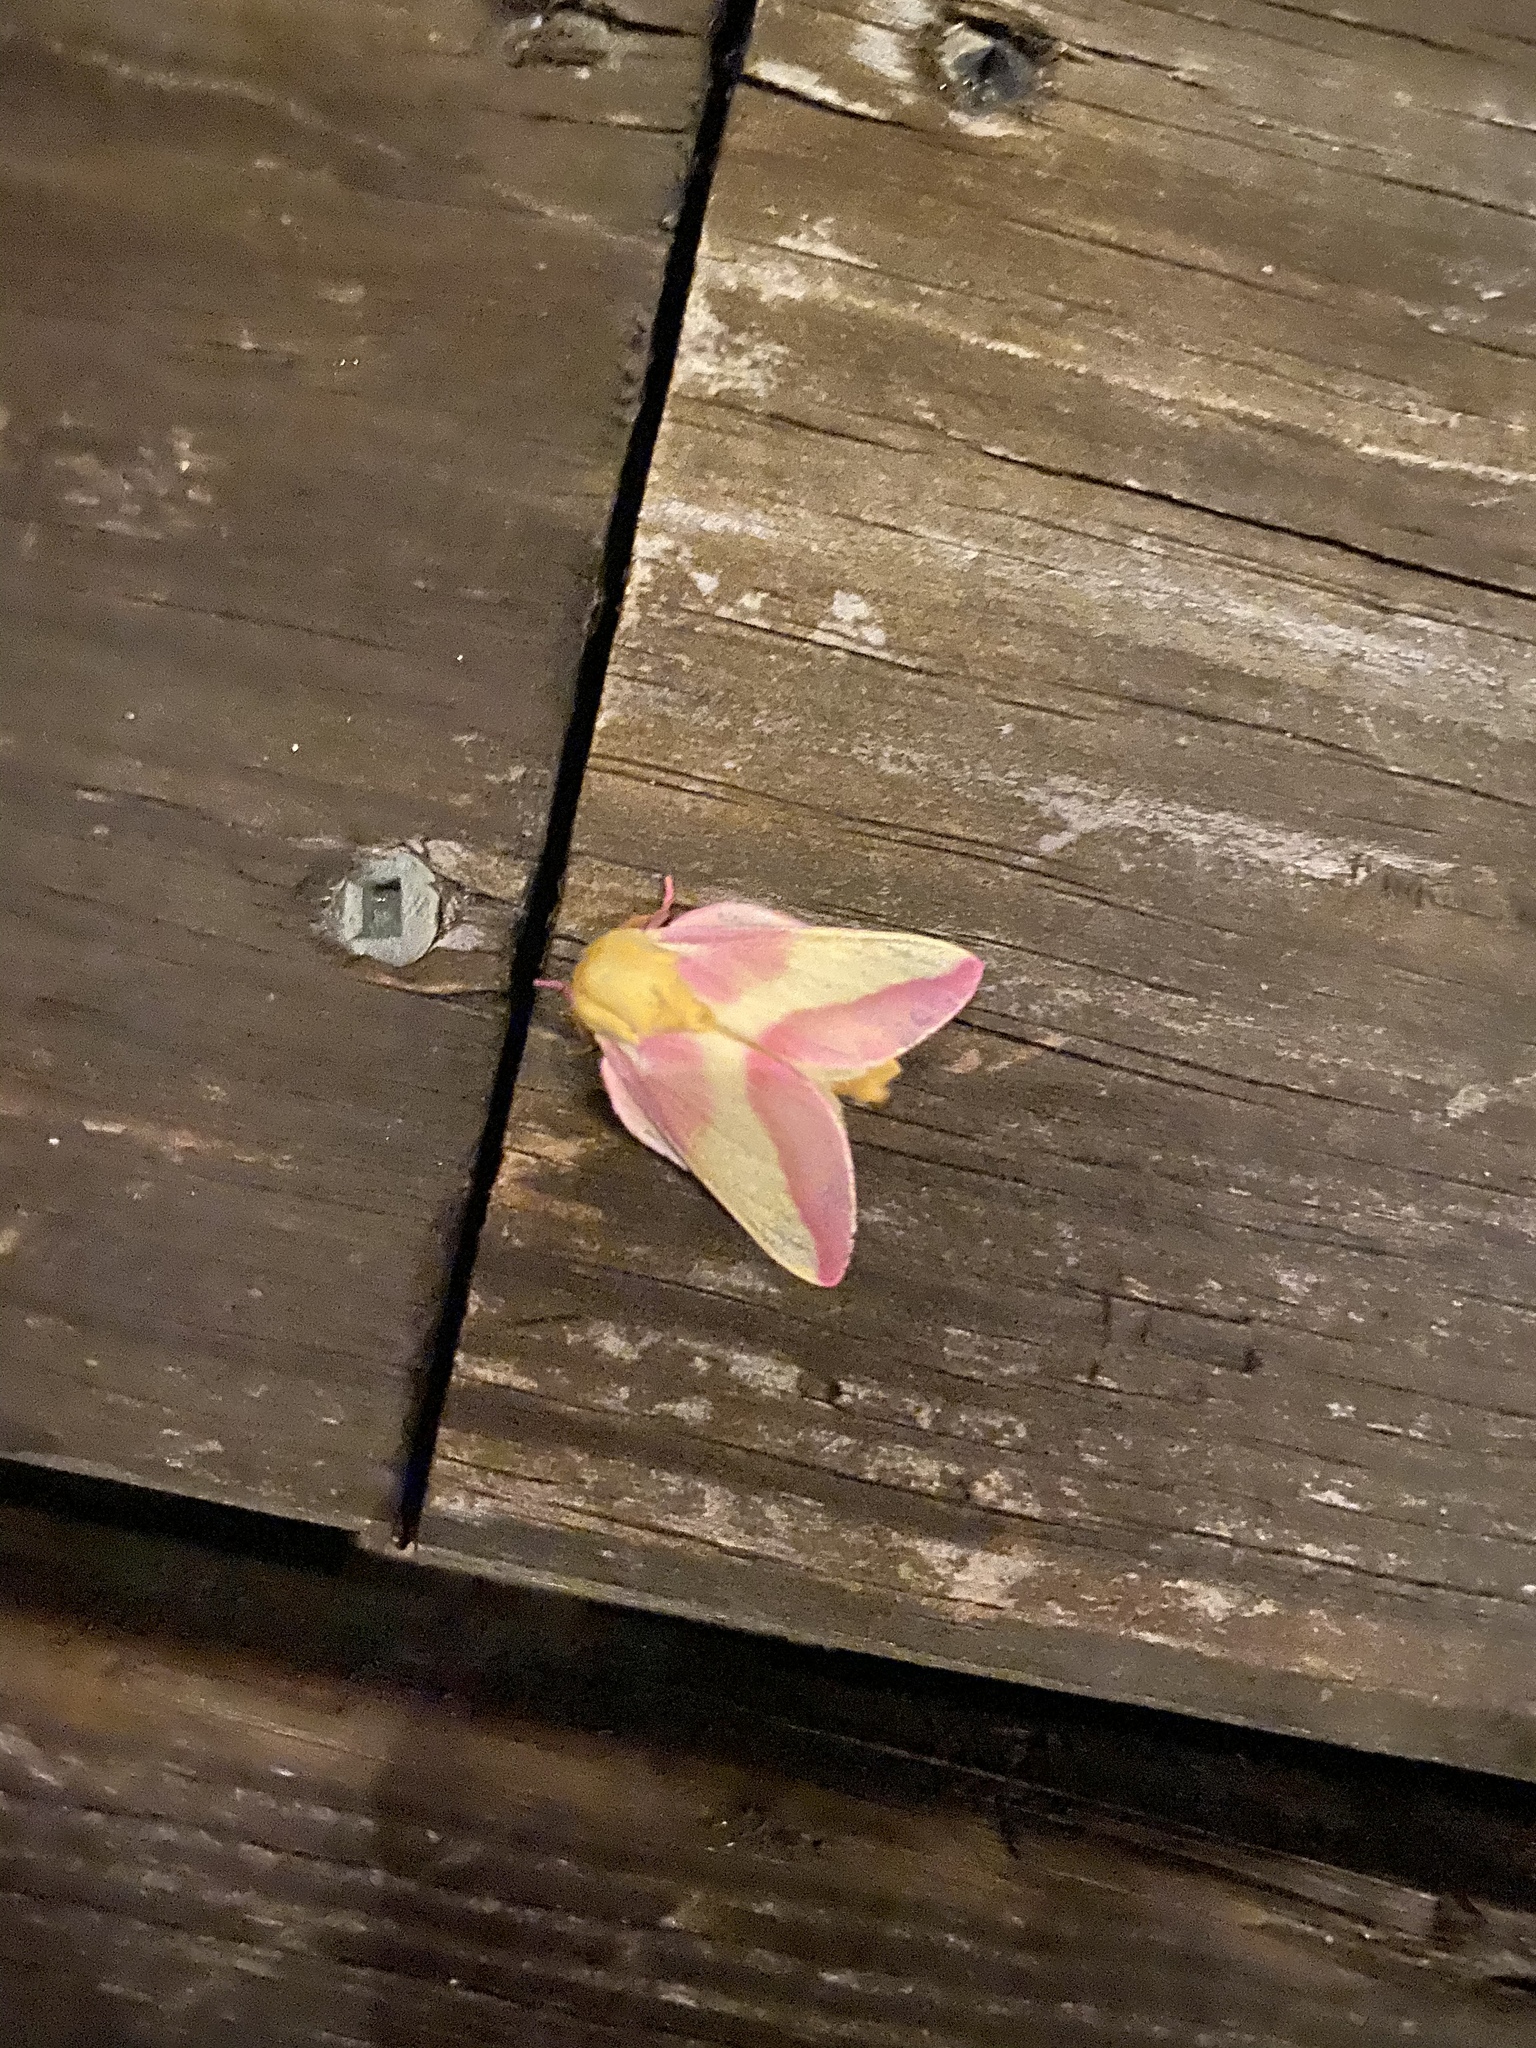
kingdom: Animalia
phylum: Arthropoda
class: Insecta
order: Lepidoptera
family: Saturniidae
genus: Dryocampa
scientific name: Dryocampa rubicunda
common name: Rosy maple moth
